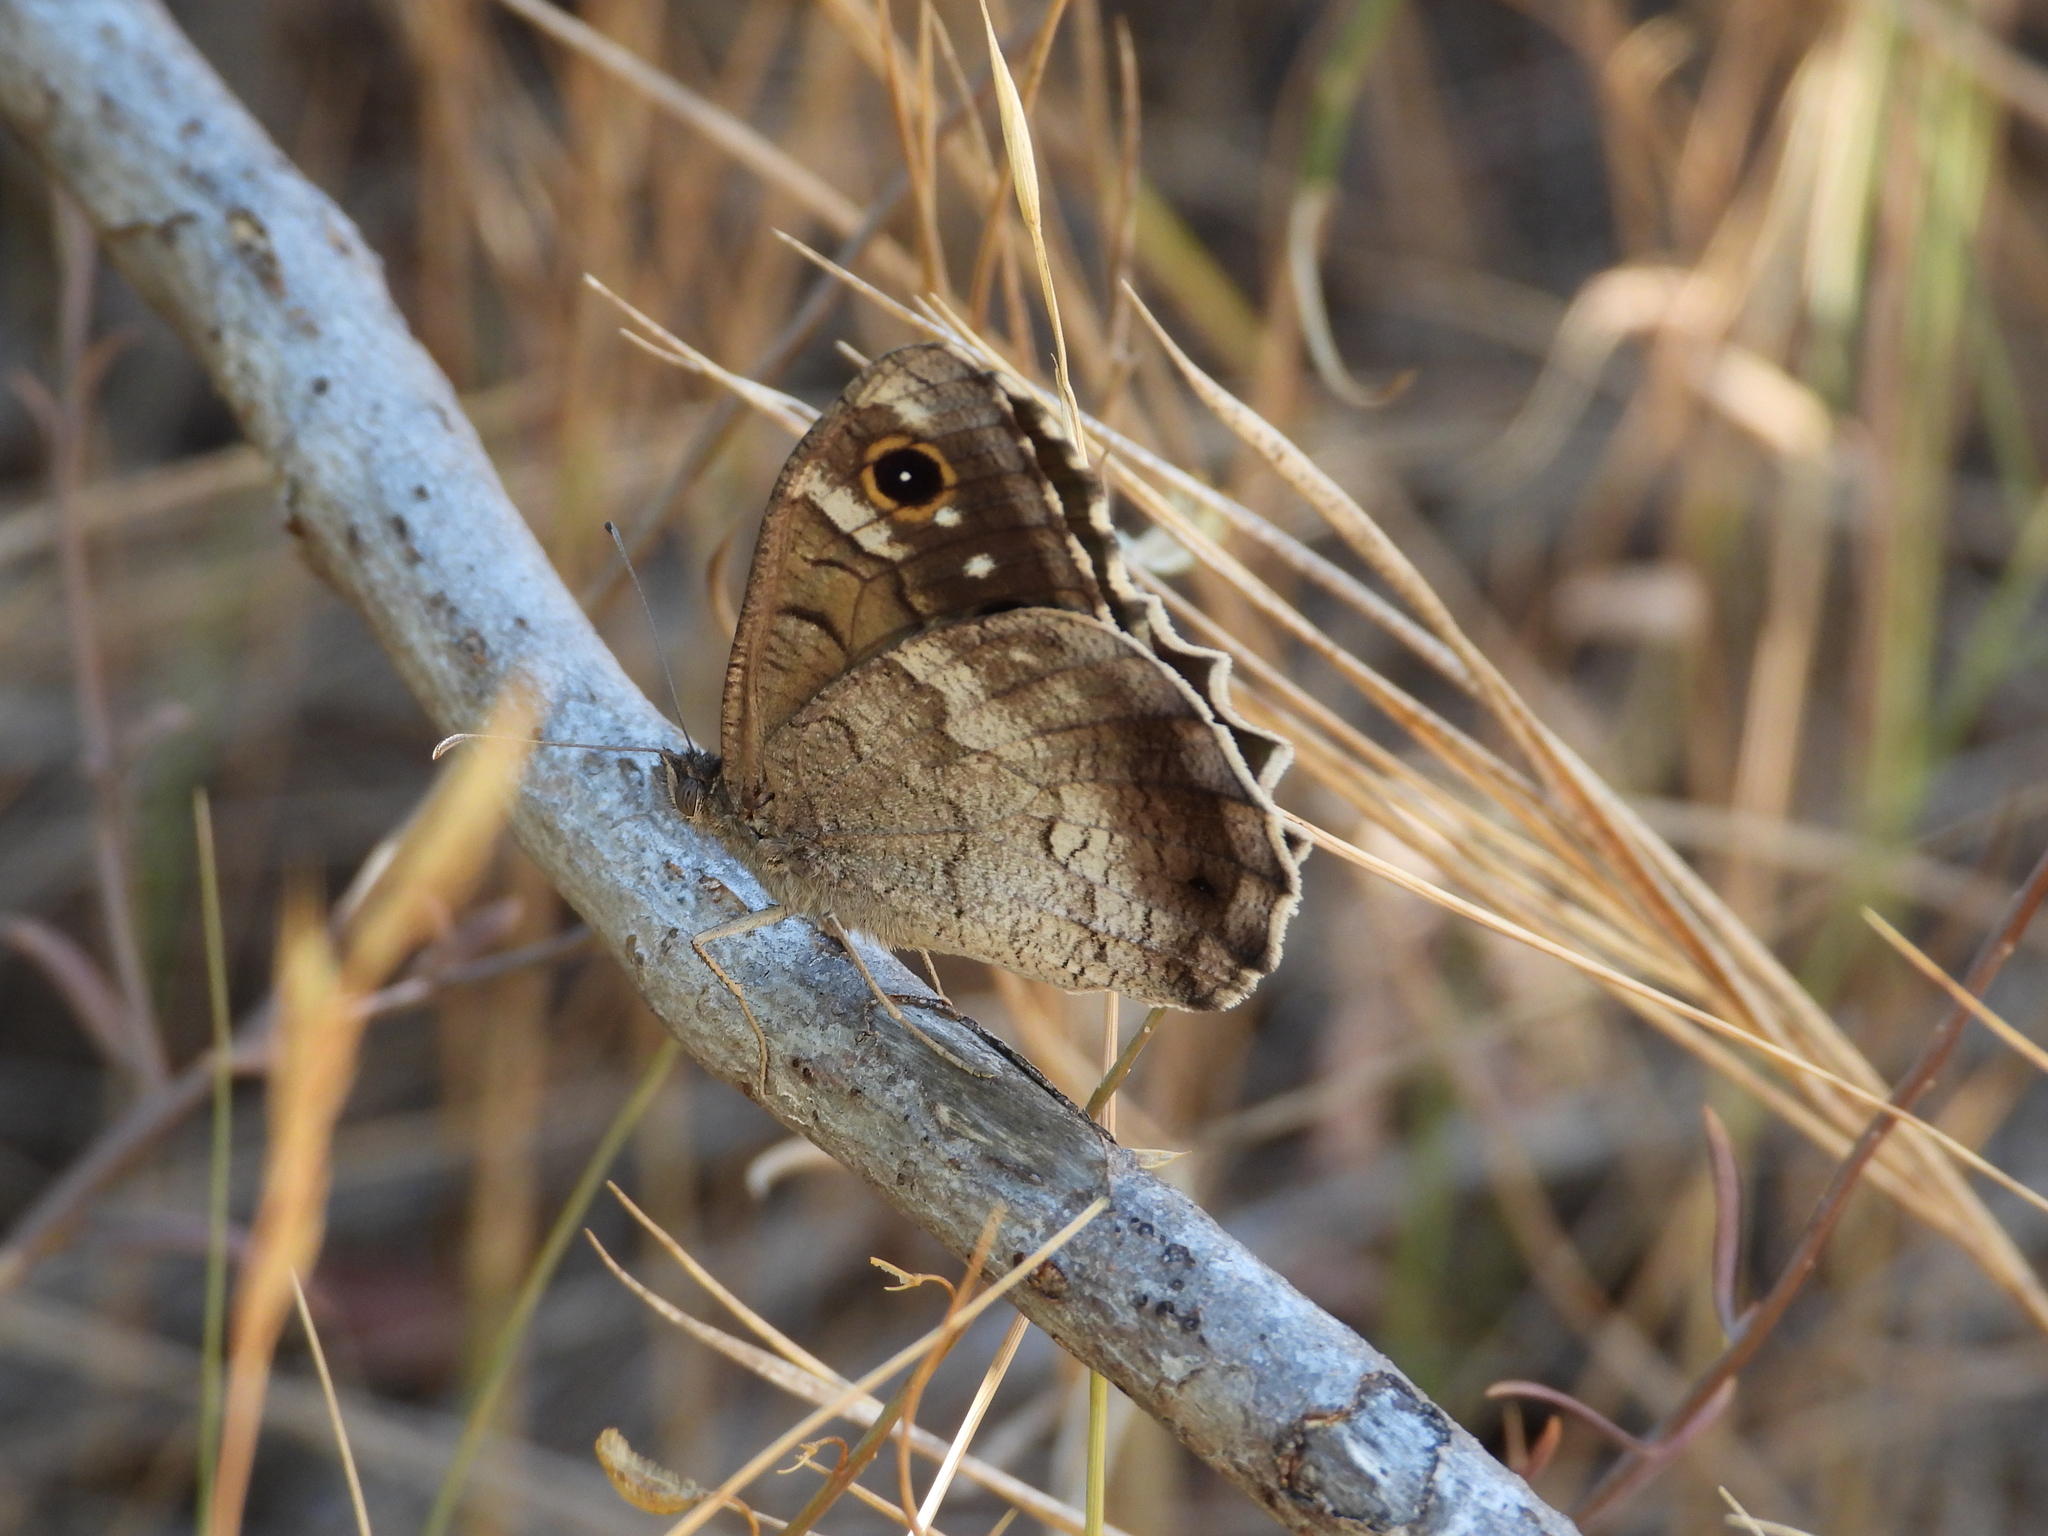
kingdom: Animalia
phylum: Arthropoda
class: Insecta
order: Lepidoptera
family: Nymphalidae
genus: Hipparchia
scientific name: Hipparchia statilinus
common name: Tree grayling
